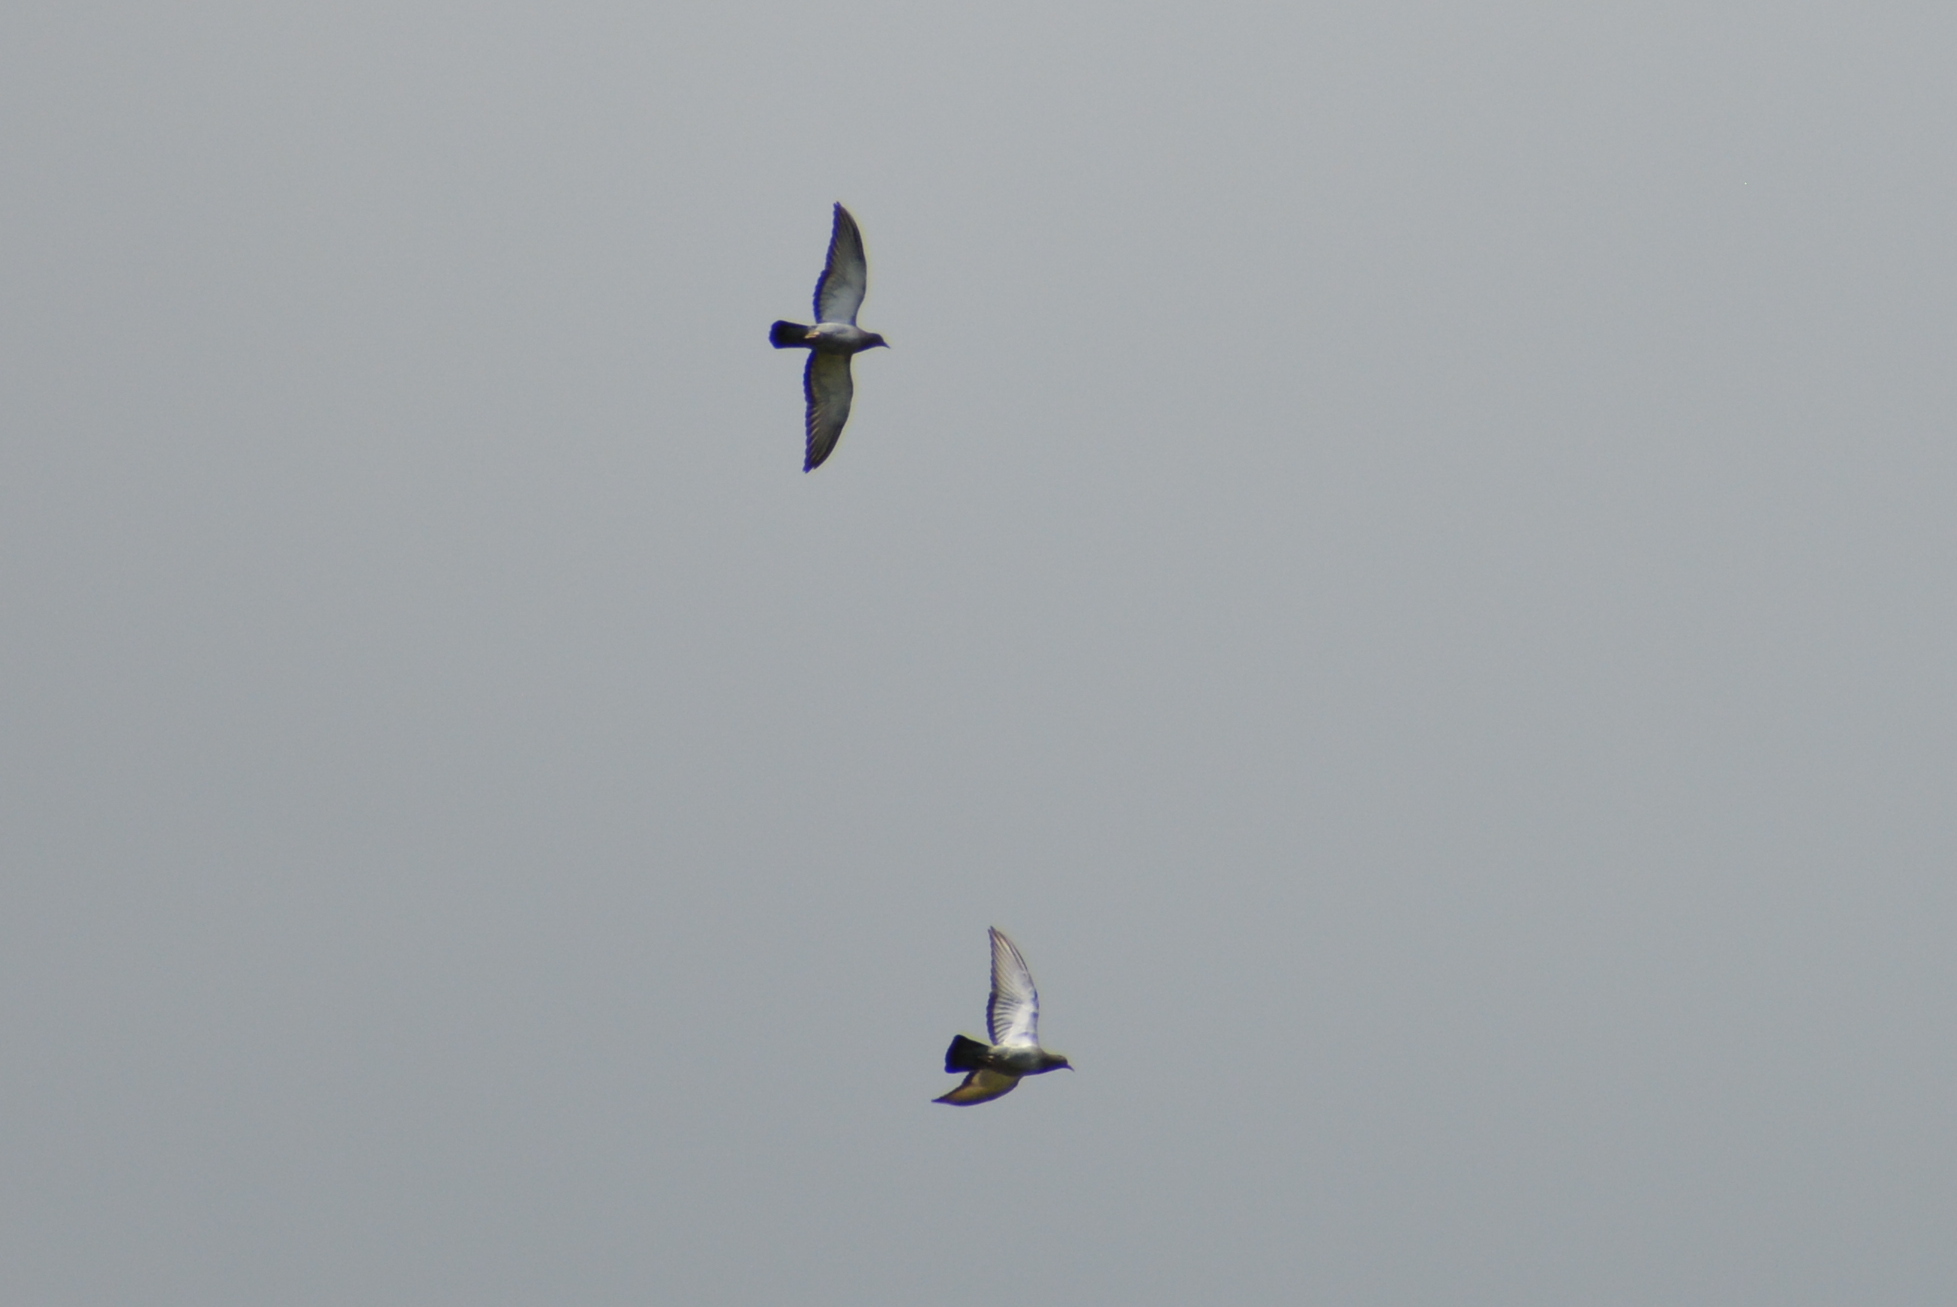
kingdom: Animalia
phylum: Chordata
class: Aves
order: Columbiformes
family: Columbidae
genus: Columba
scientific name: Columba livia
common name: Rock pigeon
